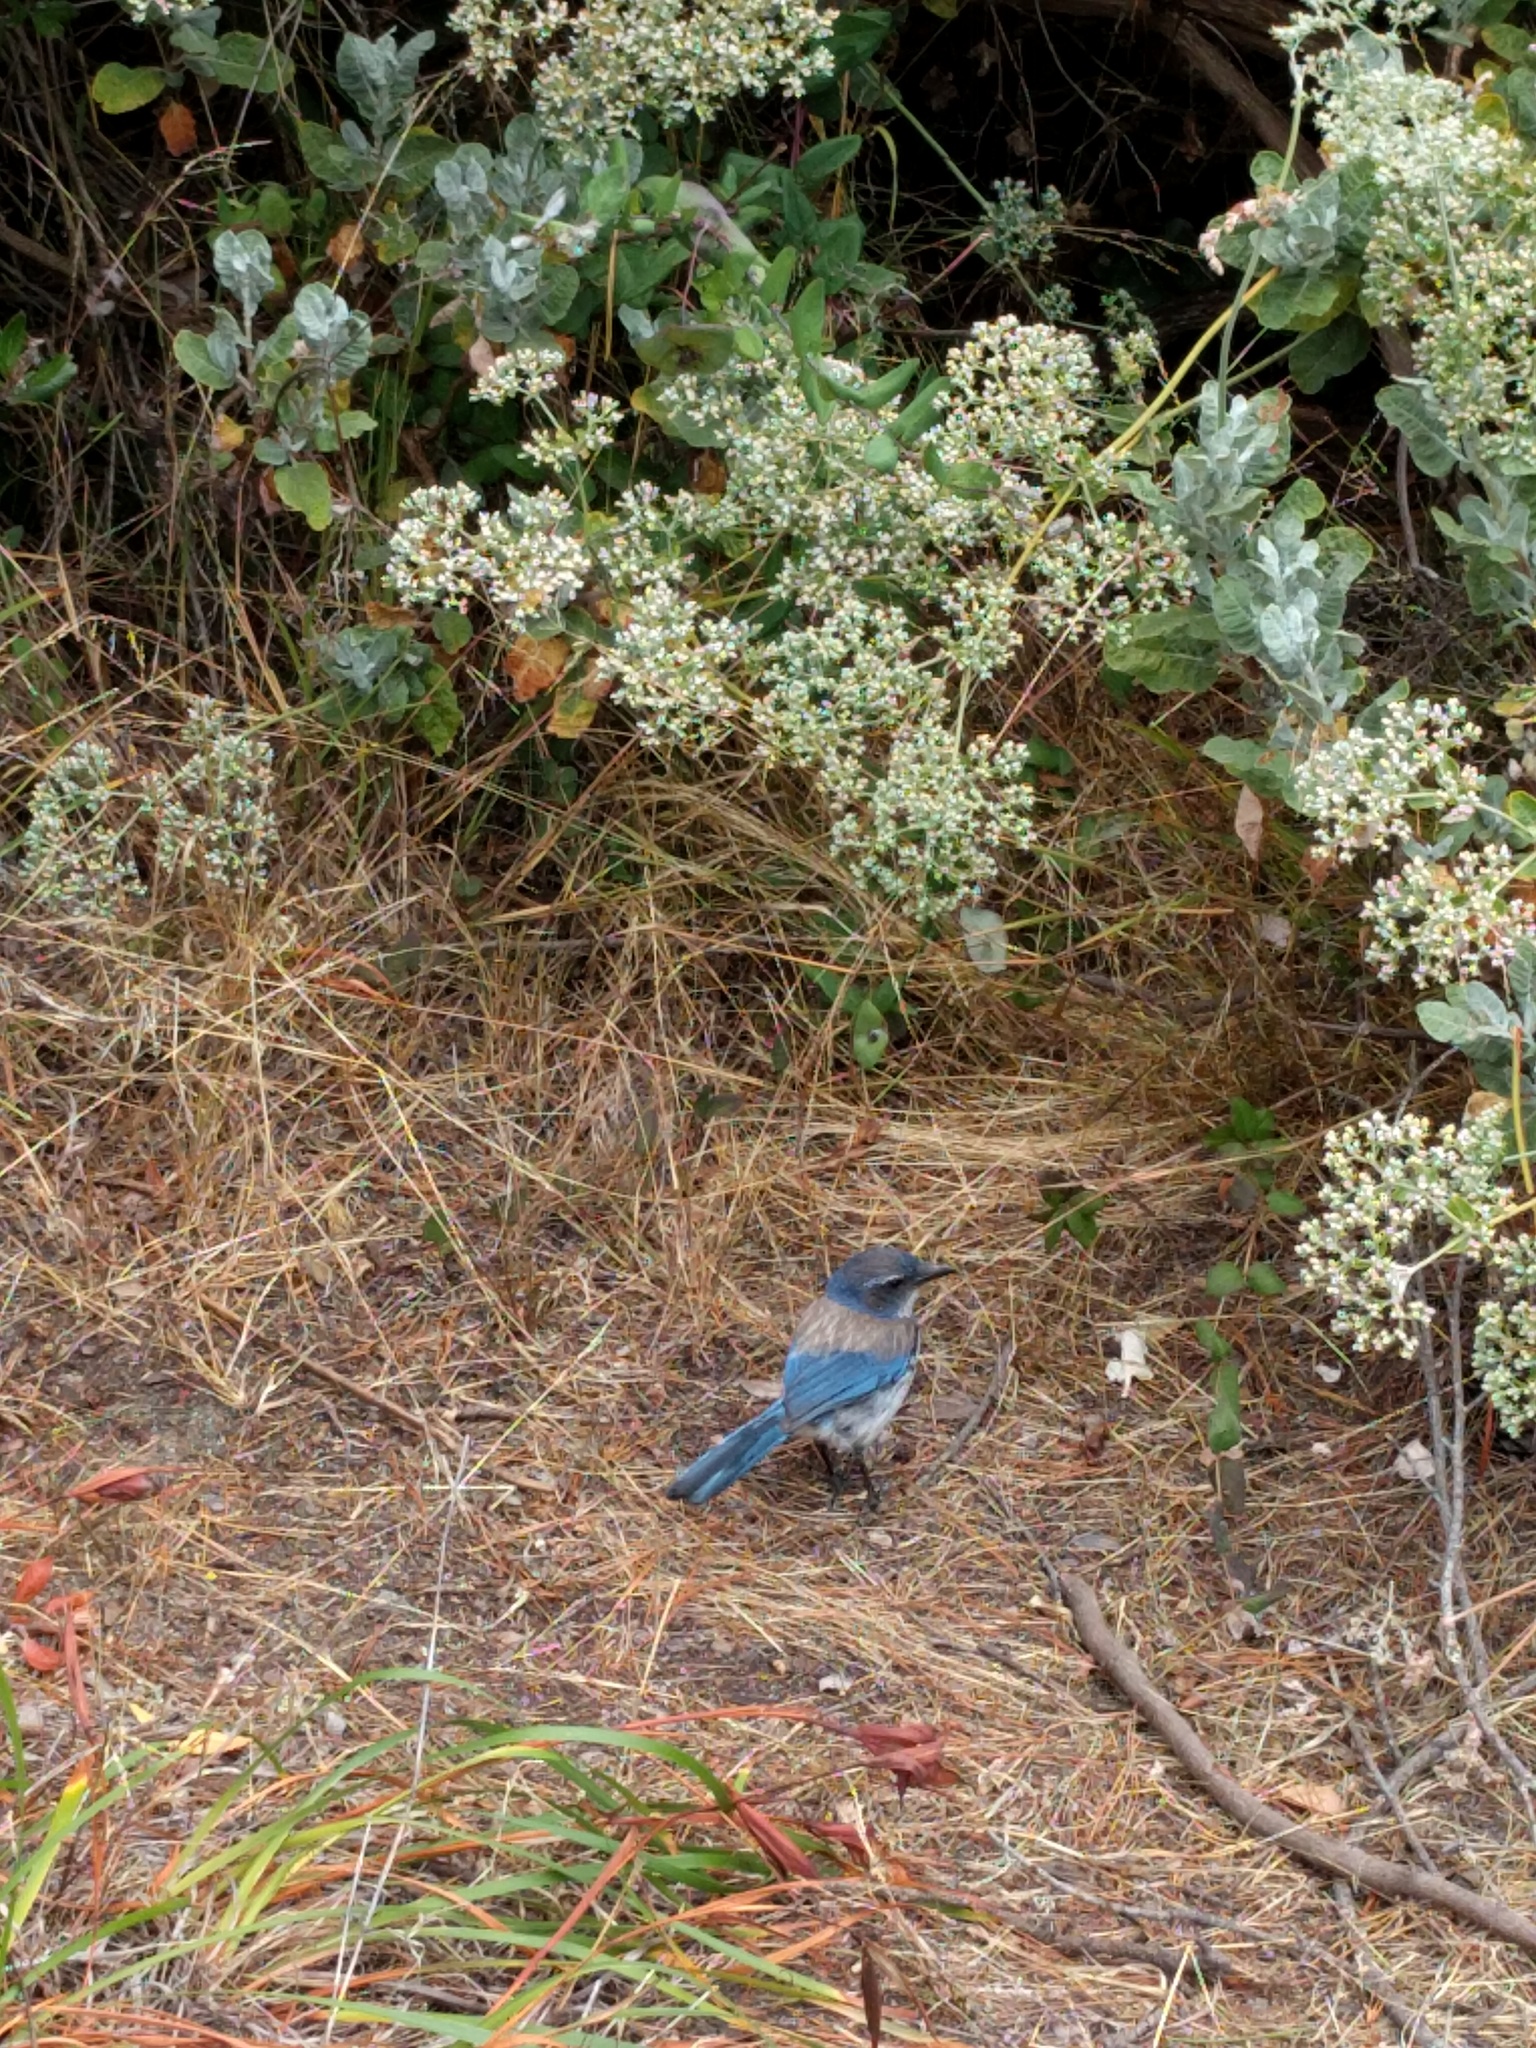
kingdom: Animalia
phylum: Chordata
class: Aves
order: Passeriformes
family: Corvidae
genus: Aphelocoma
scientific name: Aphelocoma californica
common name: California scrub-jay
